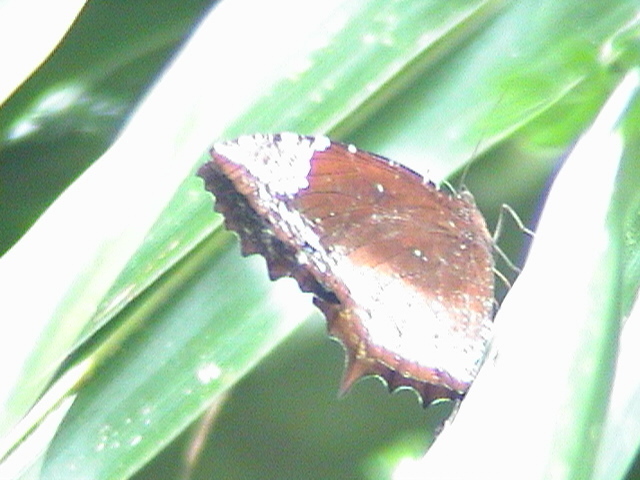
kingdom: Animalia
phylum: Arthropoda
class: Insecta
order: Lepidoptera
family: Nymphalidae
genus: Elymnias
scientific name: Elymnias caudata
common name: Tailed palmfly
